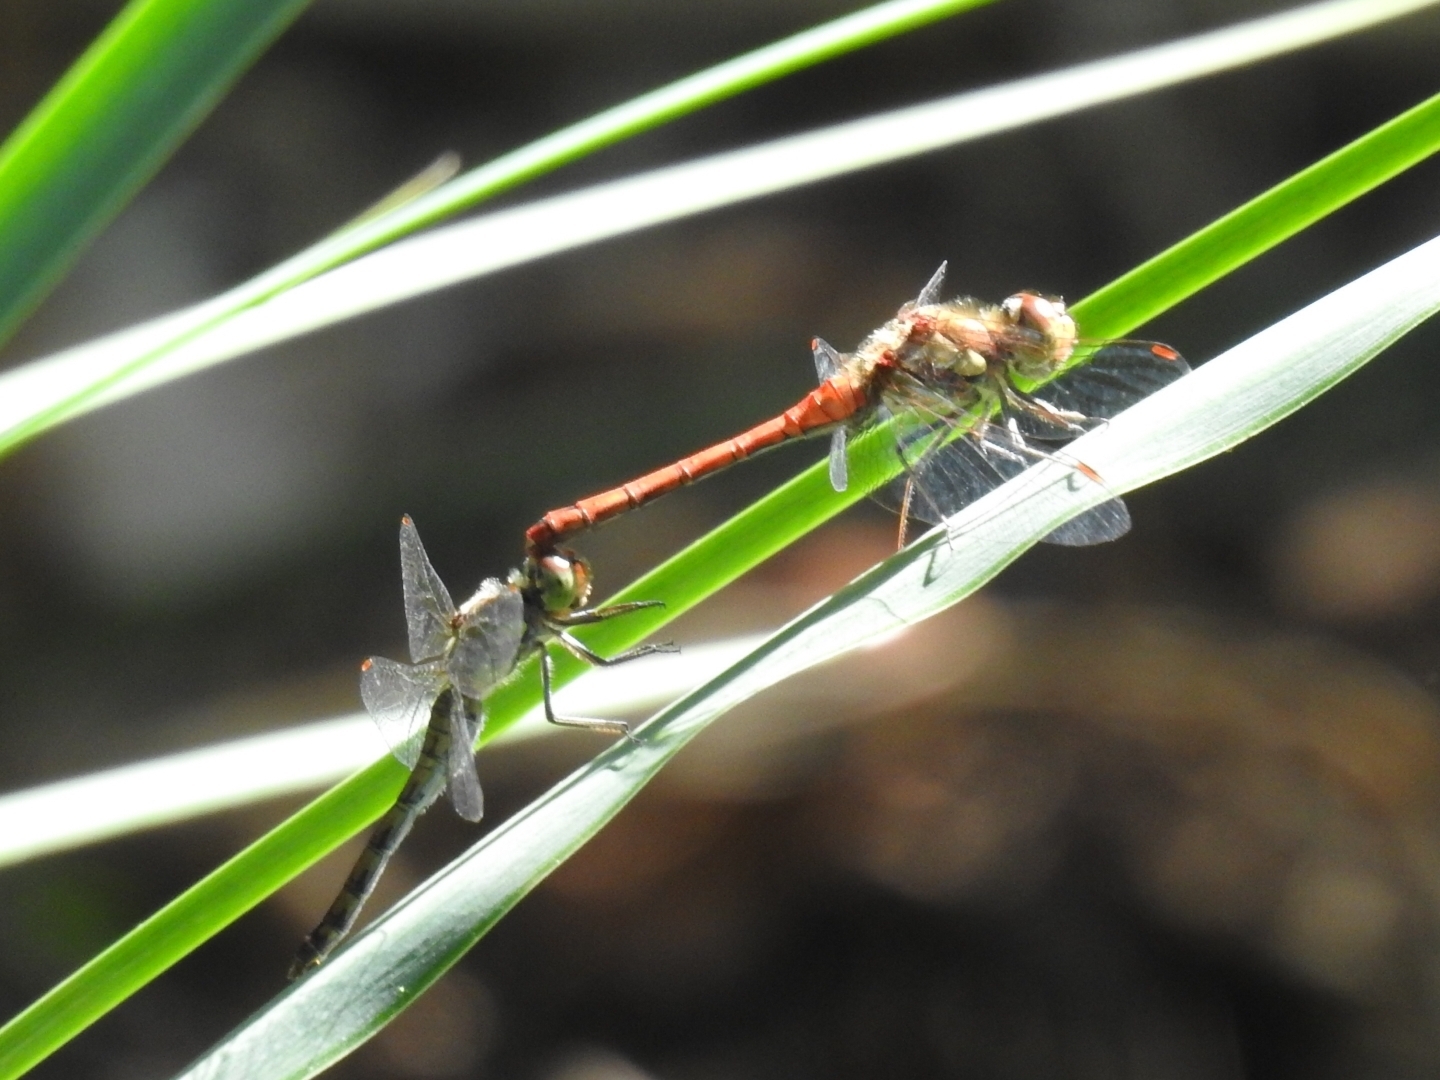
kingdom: Animalia
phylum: Arthropoda
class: Insecta
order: Odonata
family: Libellulidae
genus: Sympetrum
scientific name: Sympetrum striolatum
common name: Common darter
